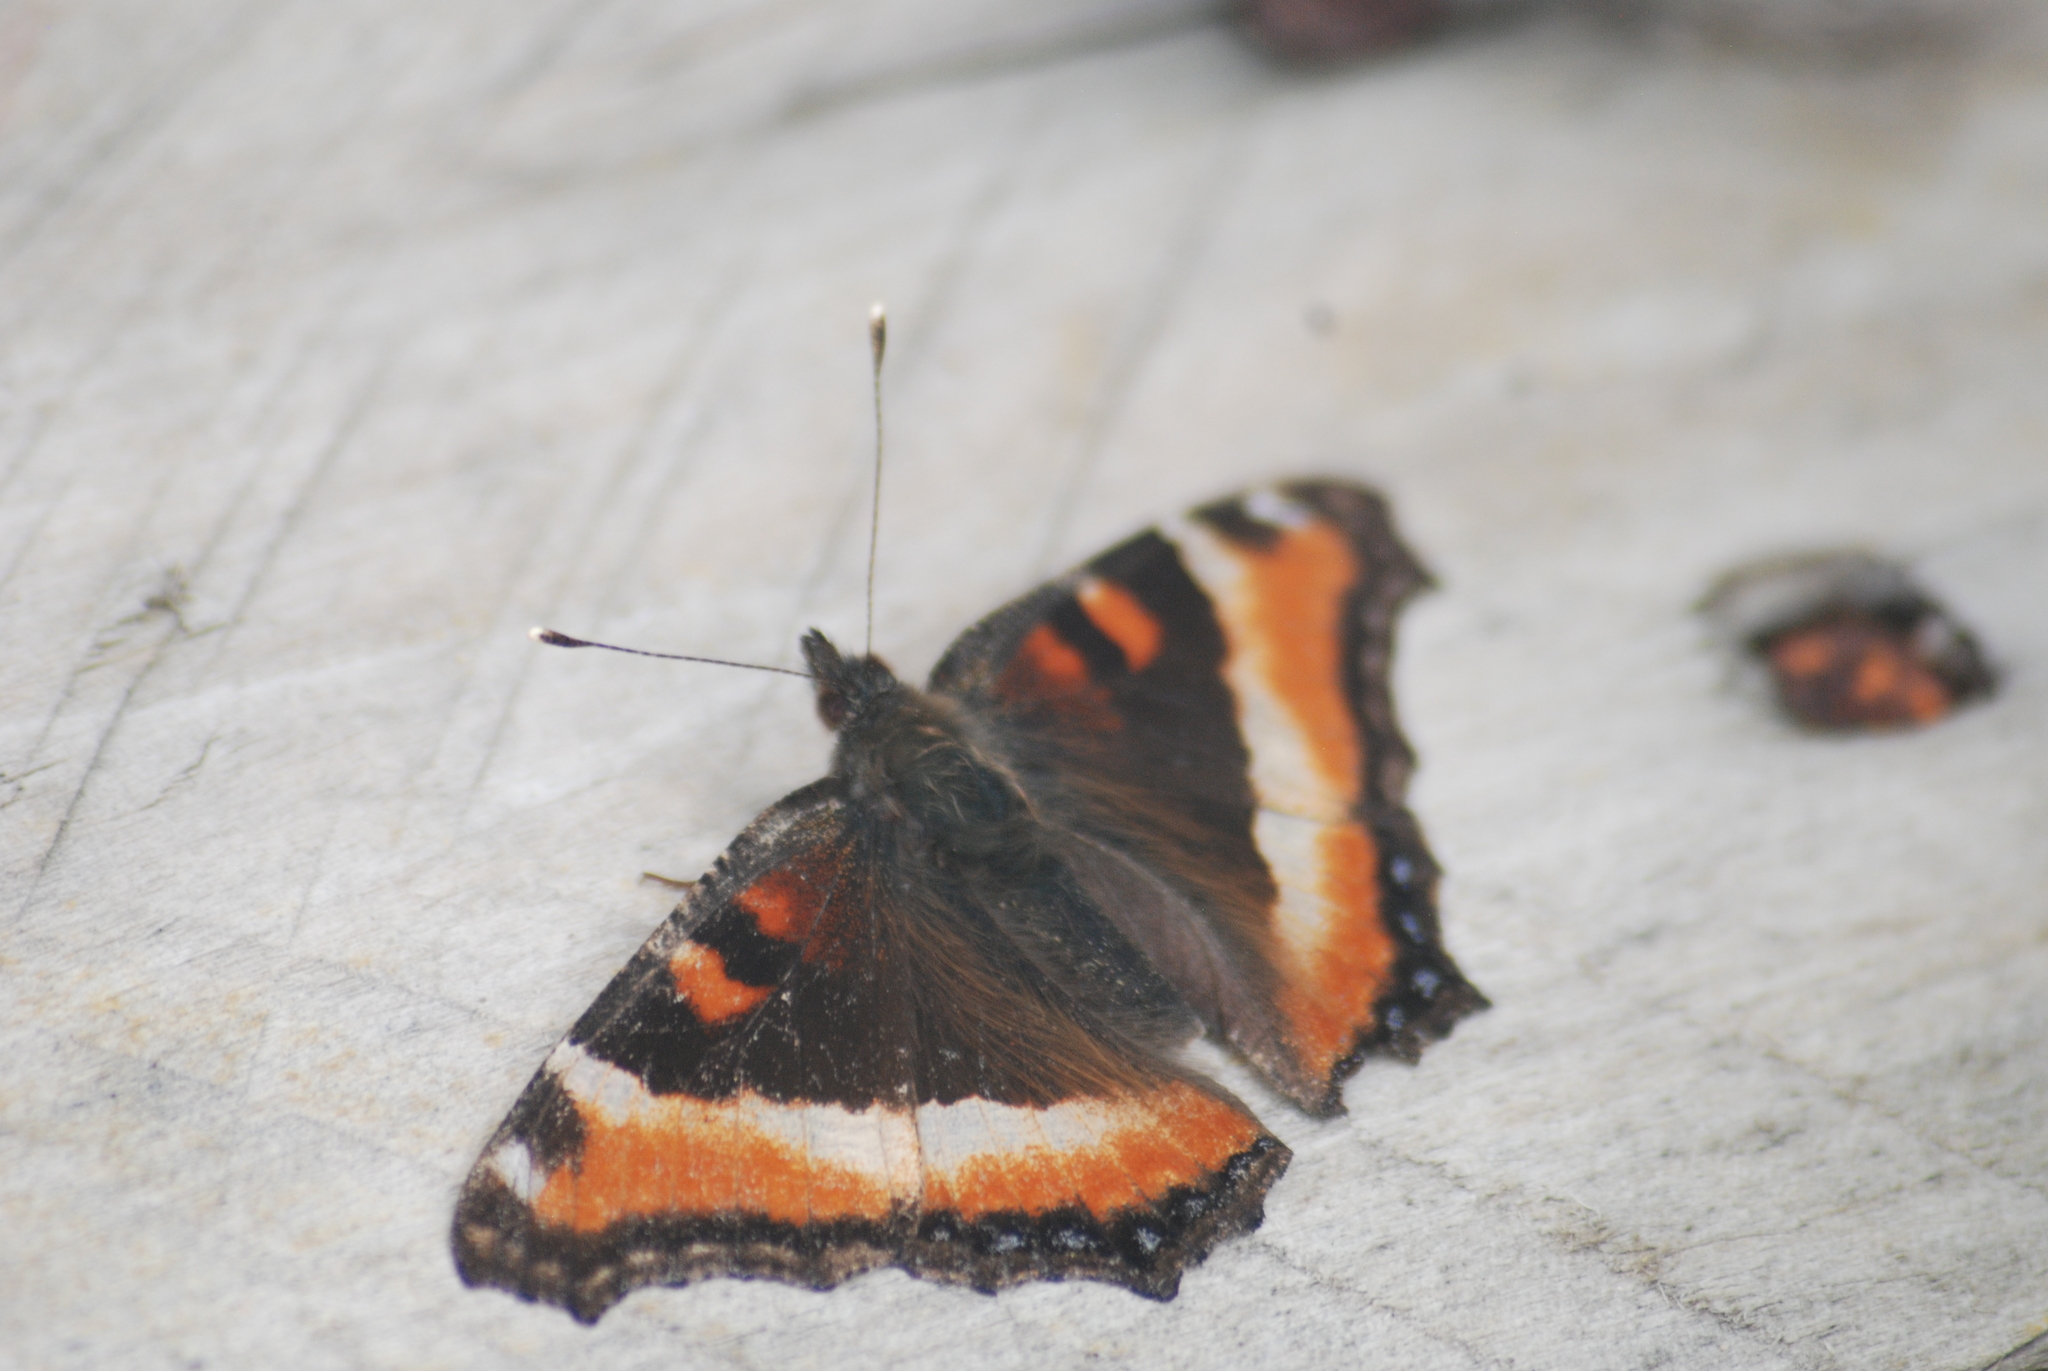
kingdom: Animalia
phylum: Arthropoda
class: Insecta
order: Lepidoptera
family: Nymphalidae
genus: Aglais
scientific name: Aglais milberti
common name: Milbert's tortoiseshell
